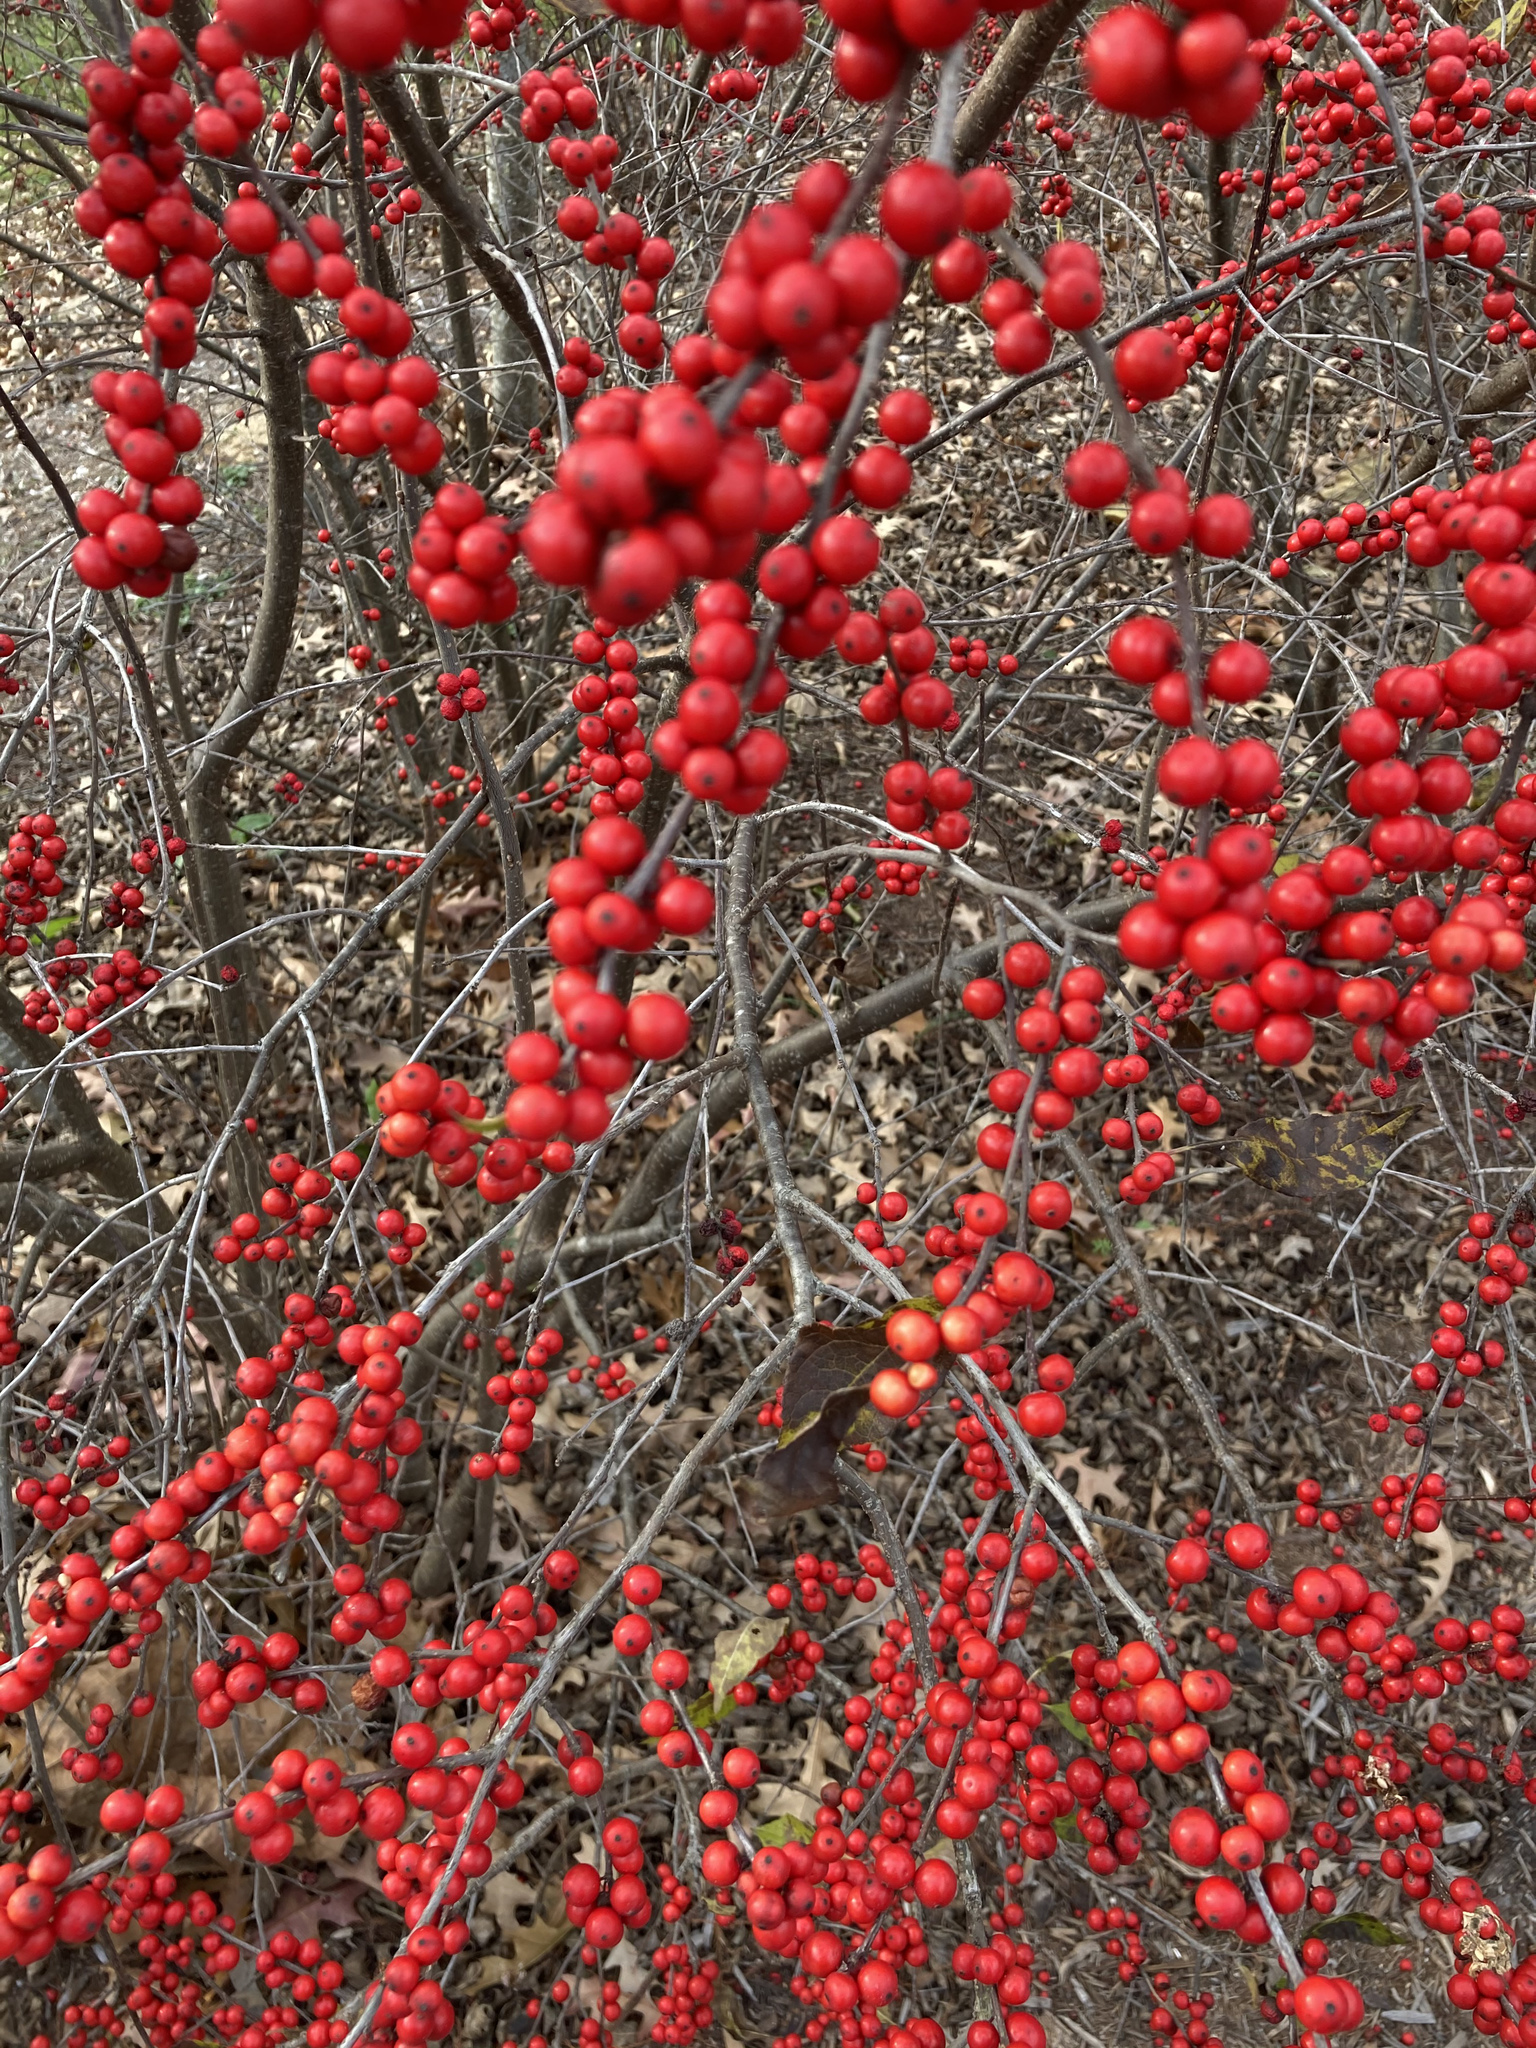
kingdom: Plantae
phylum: Tracheophyta
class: Magnoliopsida
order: Aquifoliales
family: Aquifoliaceae
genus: Ilex
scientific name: Ilex verticillata
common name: Virginia winterberry
